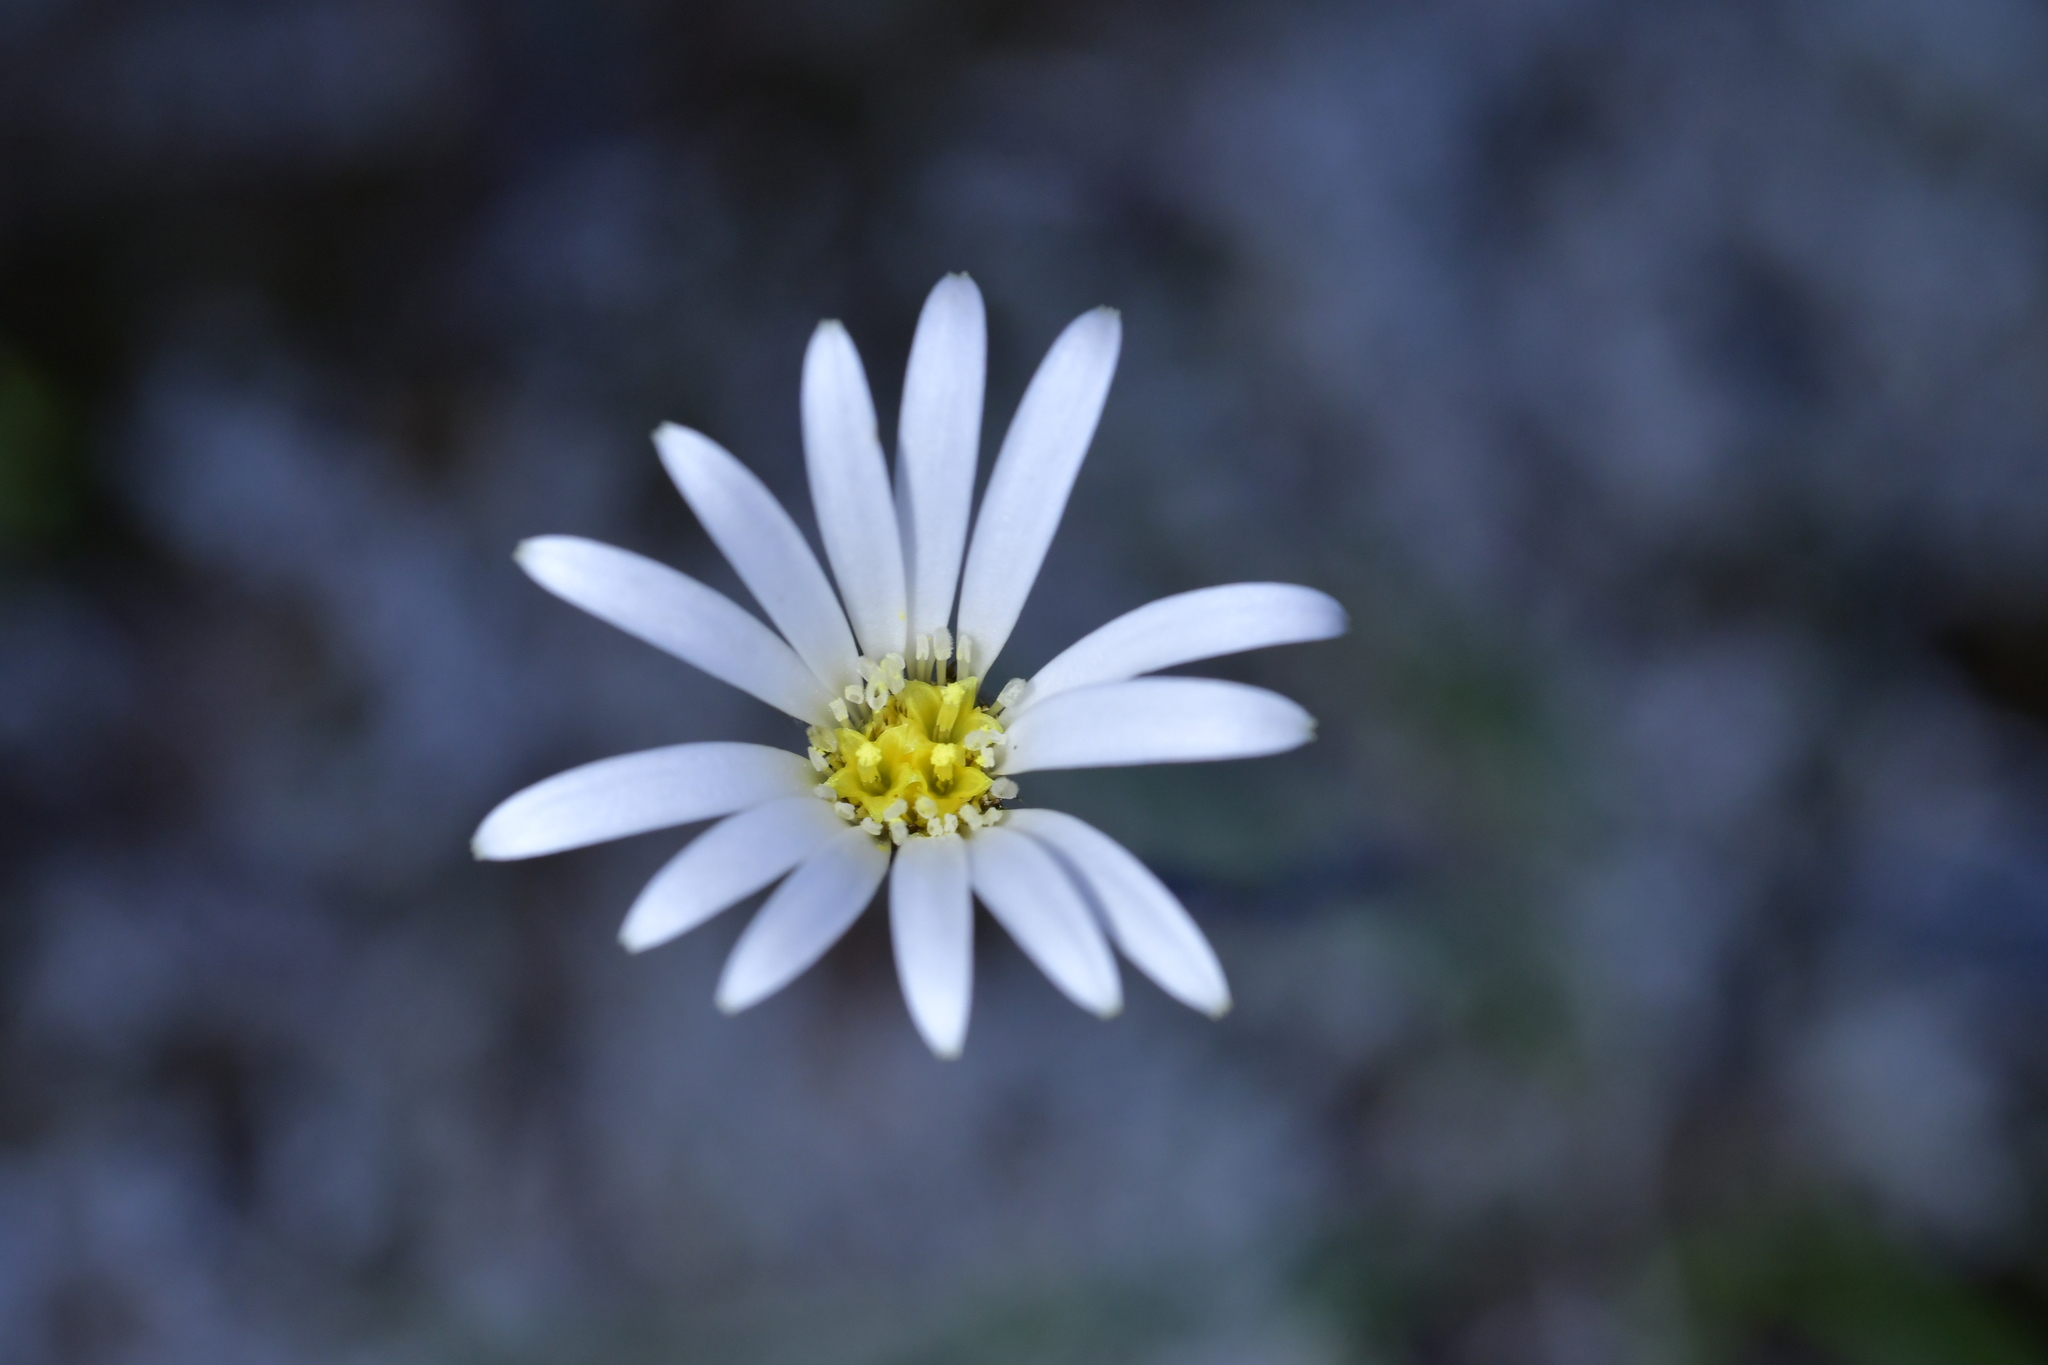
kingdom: Plantae
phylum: Tracheophyta
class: Magnoliopsida
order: Asterales
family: Asteraceae
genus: Celmisia
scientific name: Celmisia gracilenta
